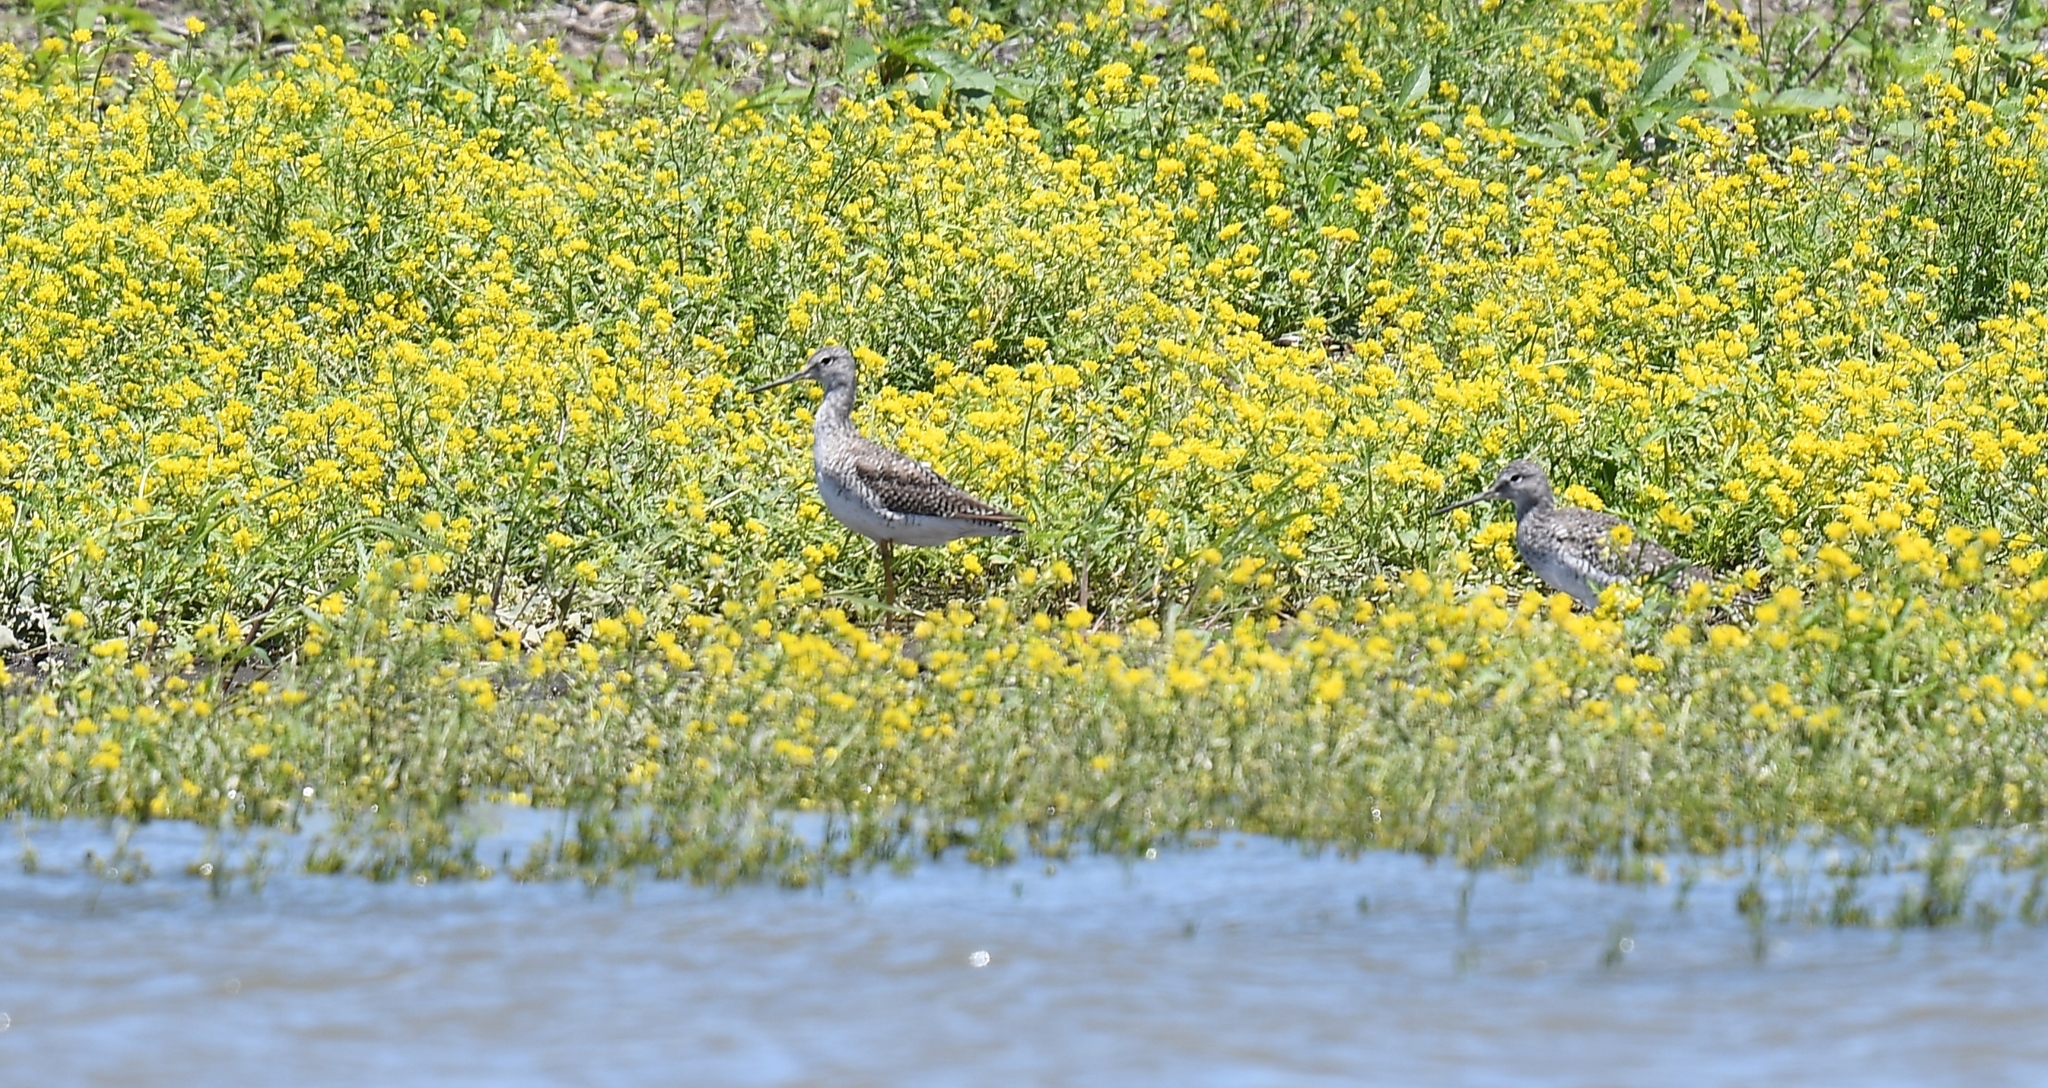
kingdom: Animalia
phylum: Chordata
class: Aves
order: Charadriiformes
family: Scolopacidae
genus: Tringa
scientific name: Tringa melanoleuca
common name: Greater yellowlegs
